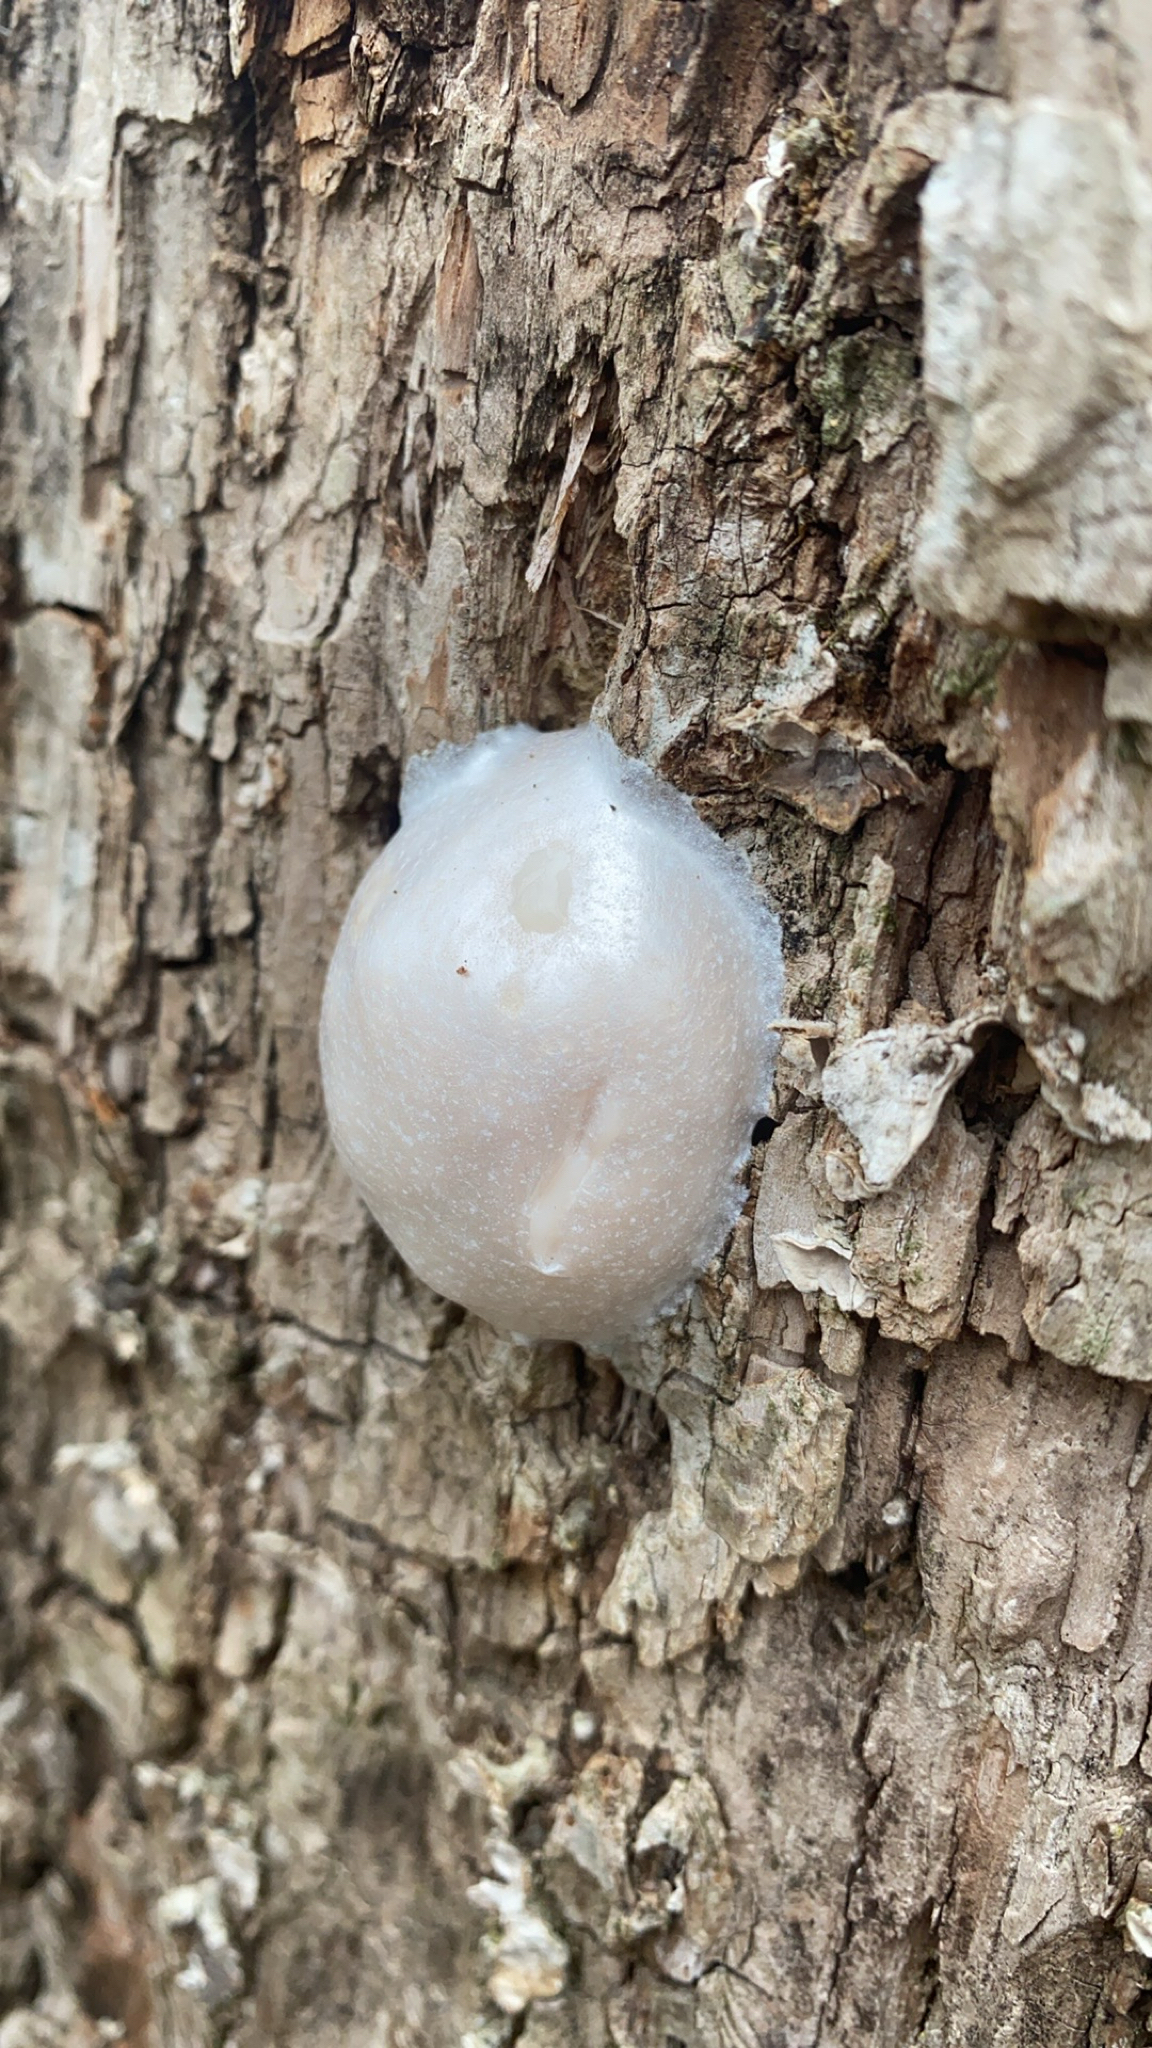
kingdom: Protozoa
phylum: Mycetozoa
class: Myxomycetes
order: Cribrariales
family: Tubiferaceae
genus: Reticularia
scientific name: Reticularia lycoperdon
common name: False puffball
